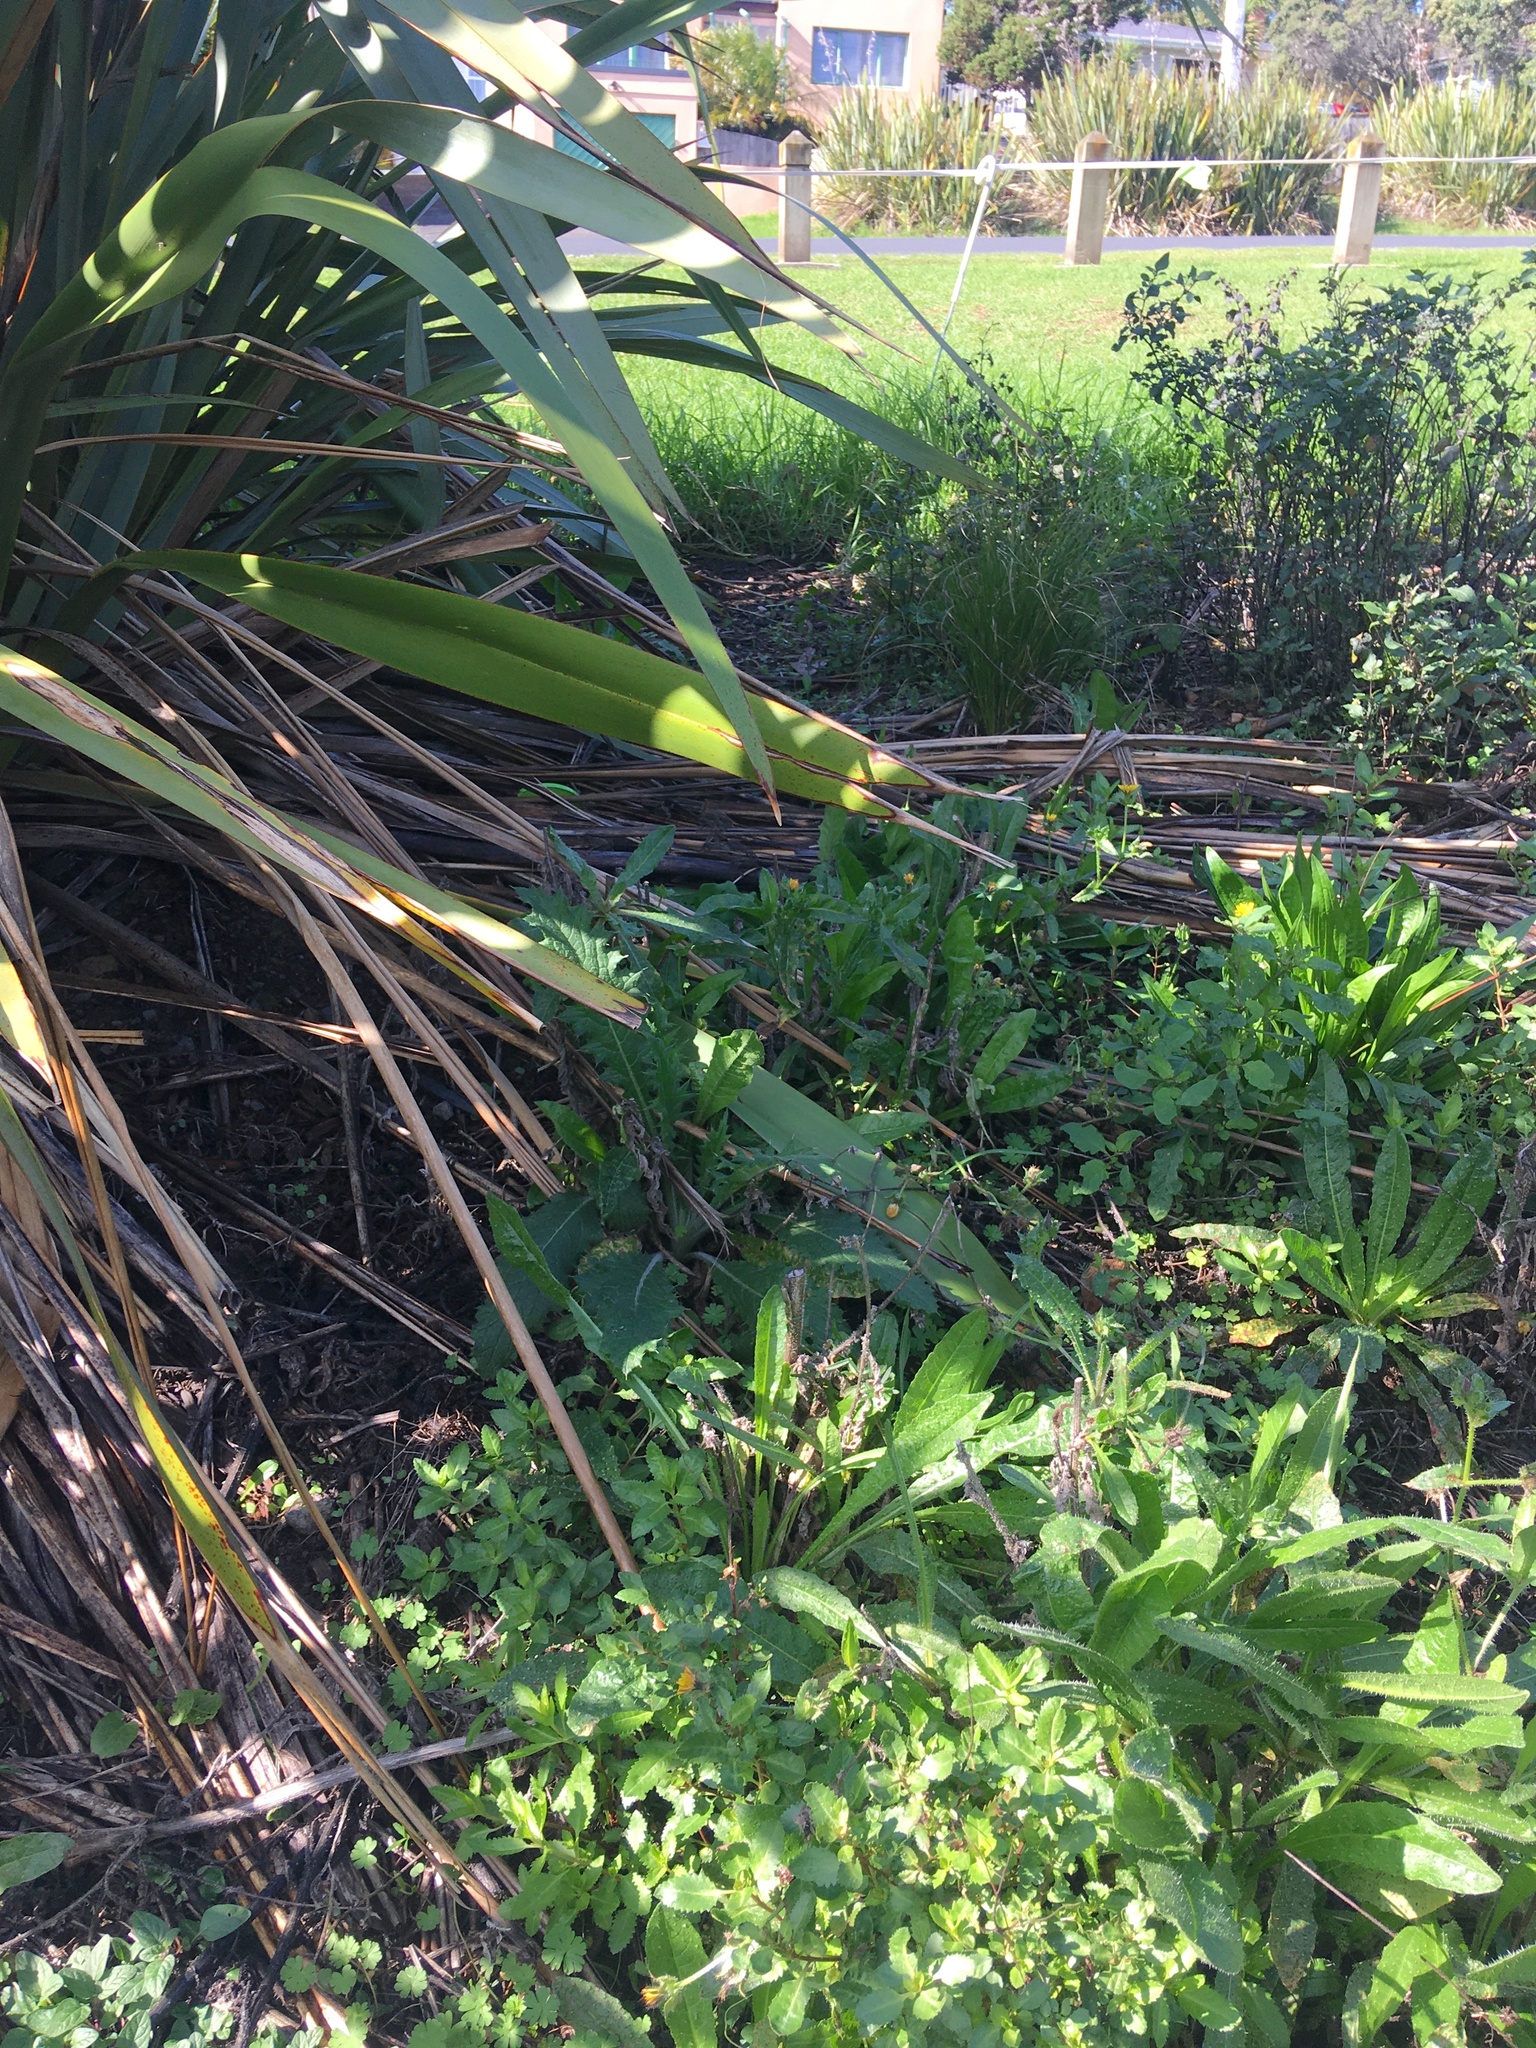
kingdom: Plantae
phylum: Tracheophyta
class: Magnoliopsida
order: Asterales
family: Asteraceae
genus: Cirsium
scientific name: Cirsium vulgare
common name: Bull thistle
